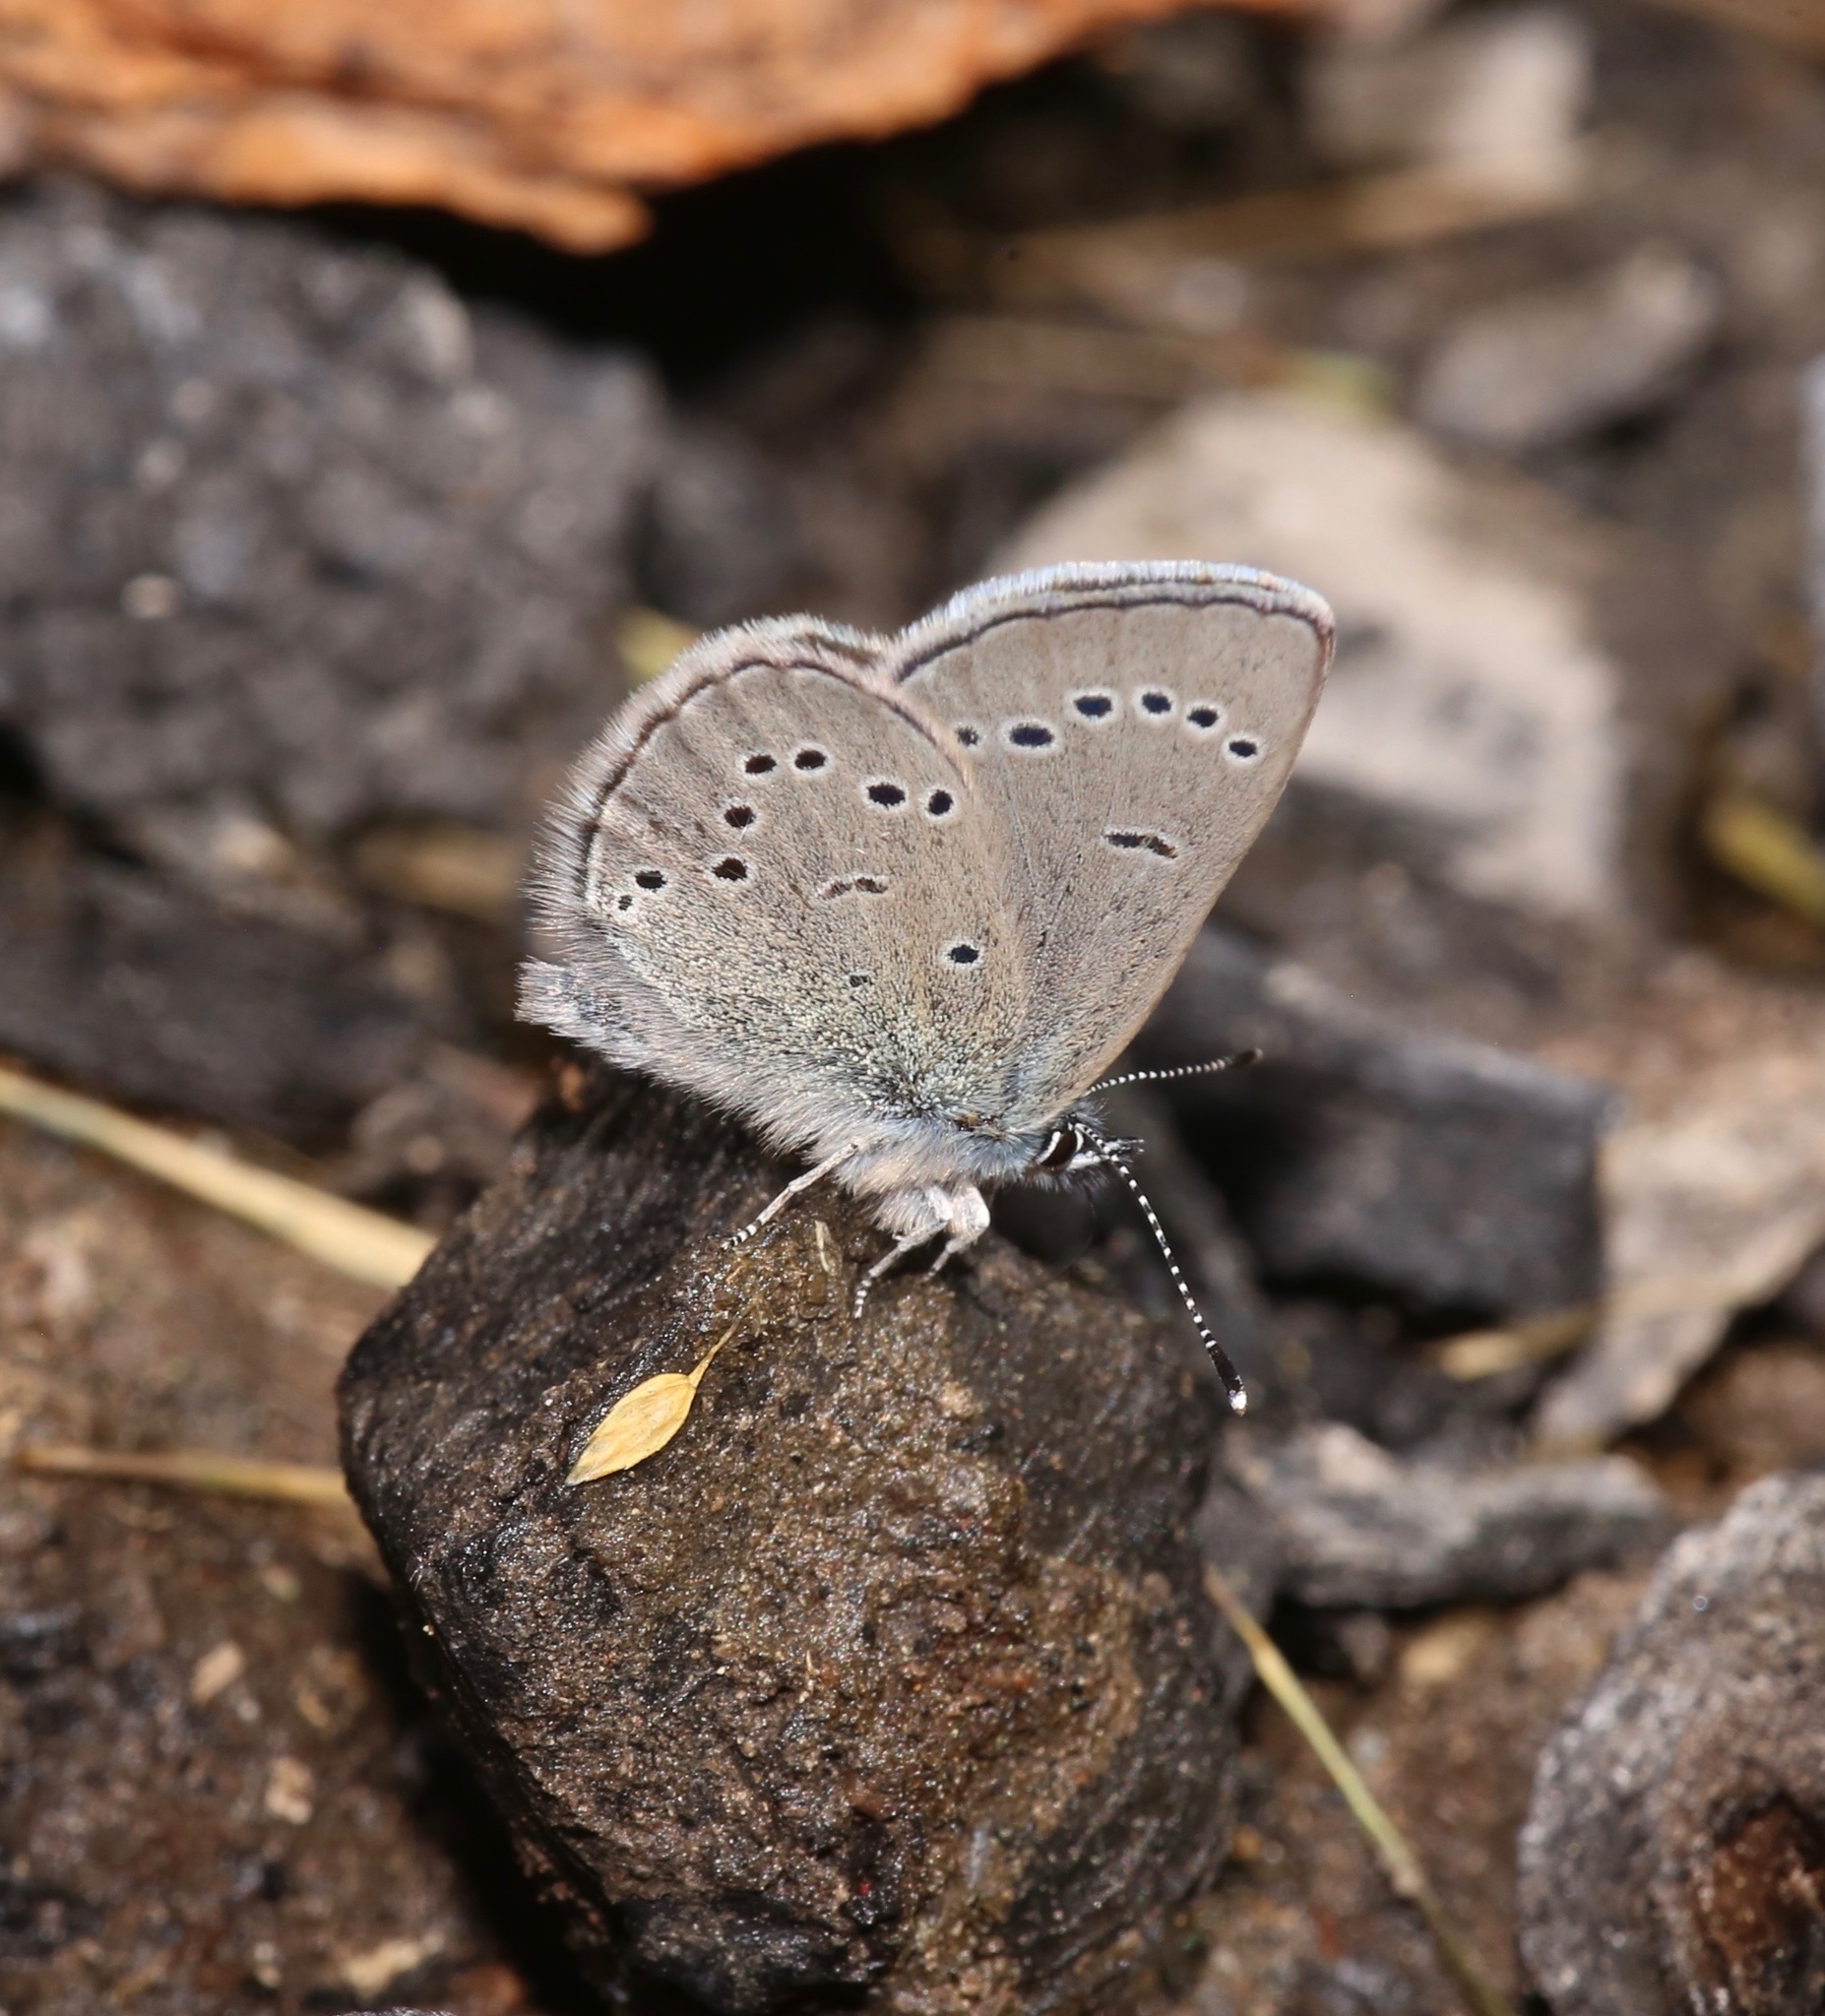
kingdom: Animalia
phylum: Arthropoda
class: Insecta
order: Lepidoptera
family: Lycaenidae
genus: Glaucopsyche
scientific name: Glaucopsyche lygdamus
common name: Silvery blue
